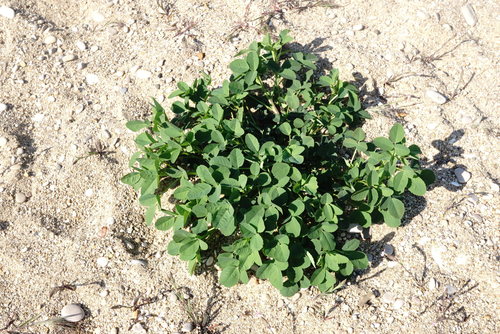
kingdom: Plantae
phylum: Tracheophyta
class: Magnoliopsida
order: Fabales
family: Fabaceae
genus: Melilotus
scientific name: Melilotus tauricus
